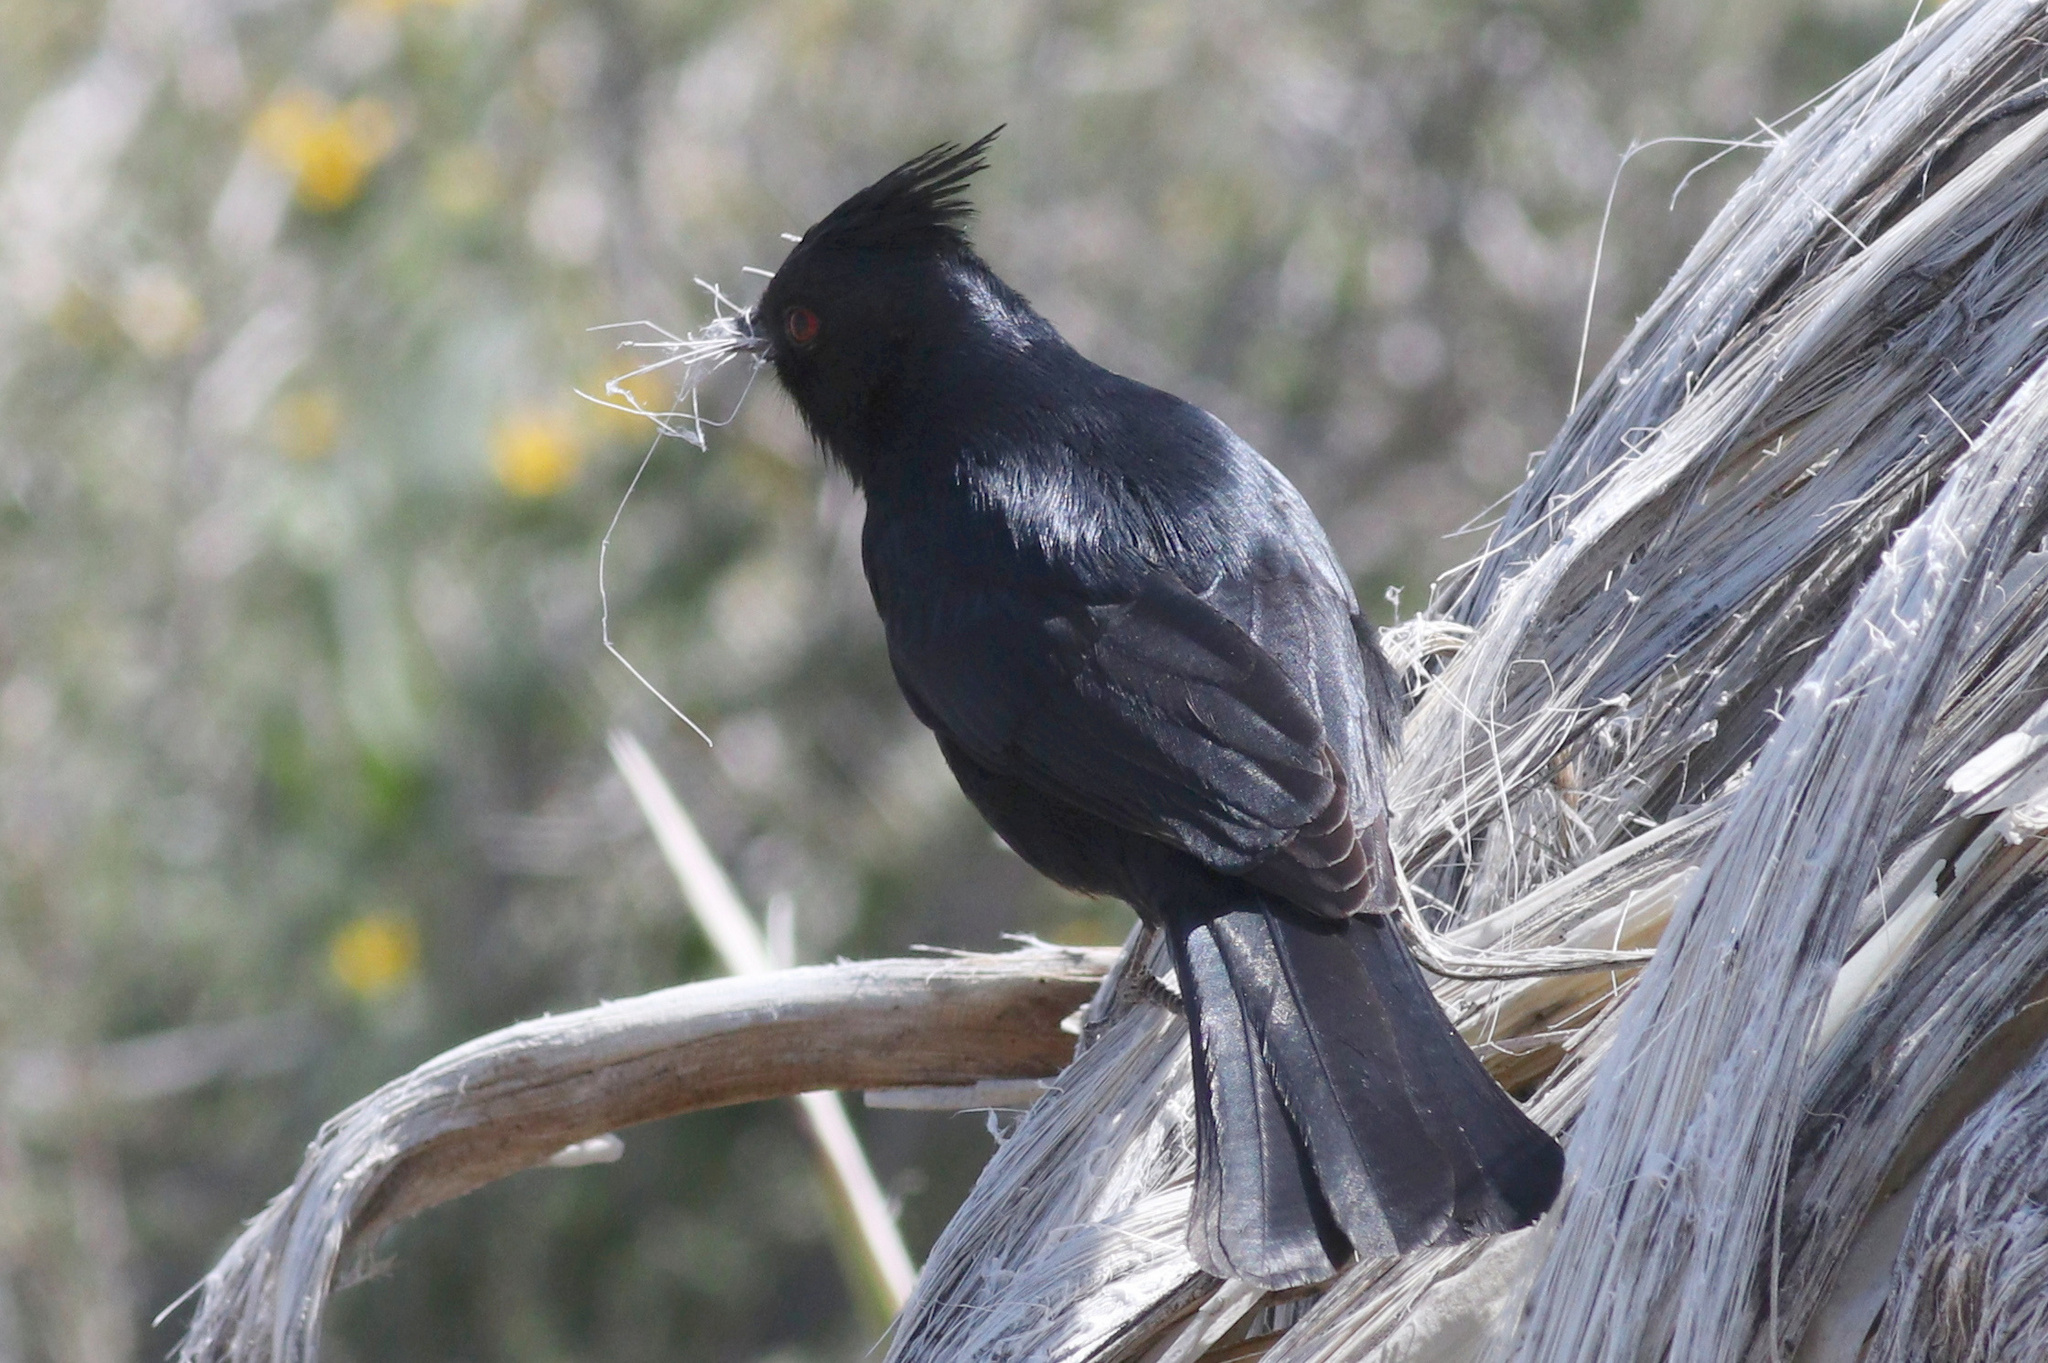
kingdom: Animalia
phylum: Chordata
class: Aves
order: Passeriformes
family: Ptilogonatidae
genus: Phainopepla
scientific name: Phainopepla nitens
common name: Phainopepla
